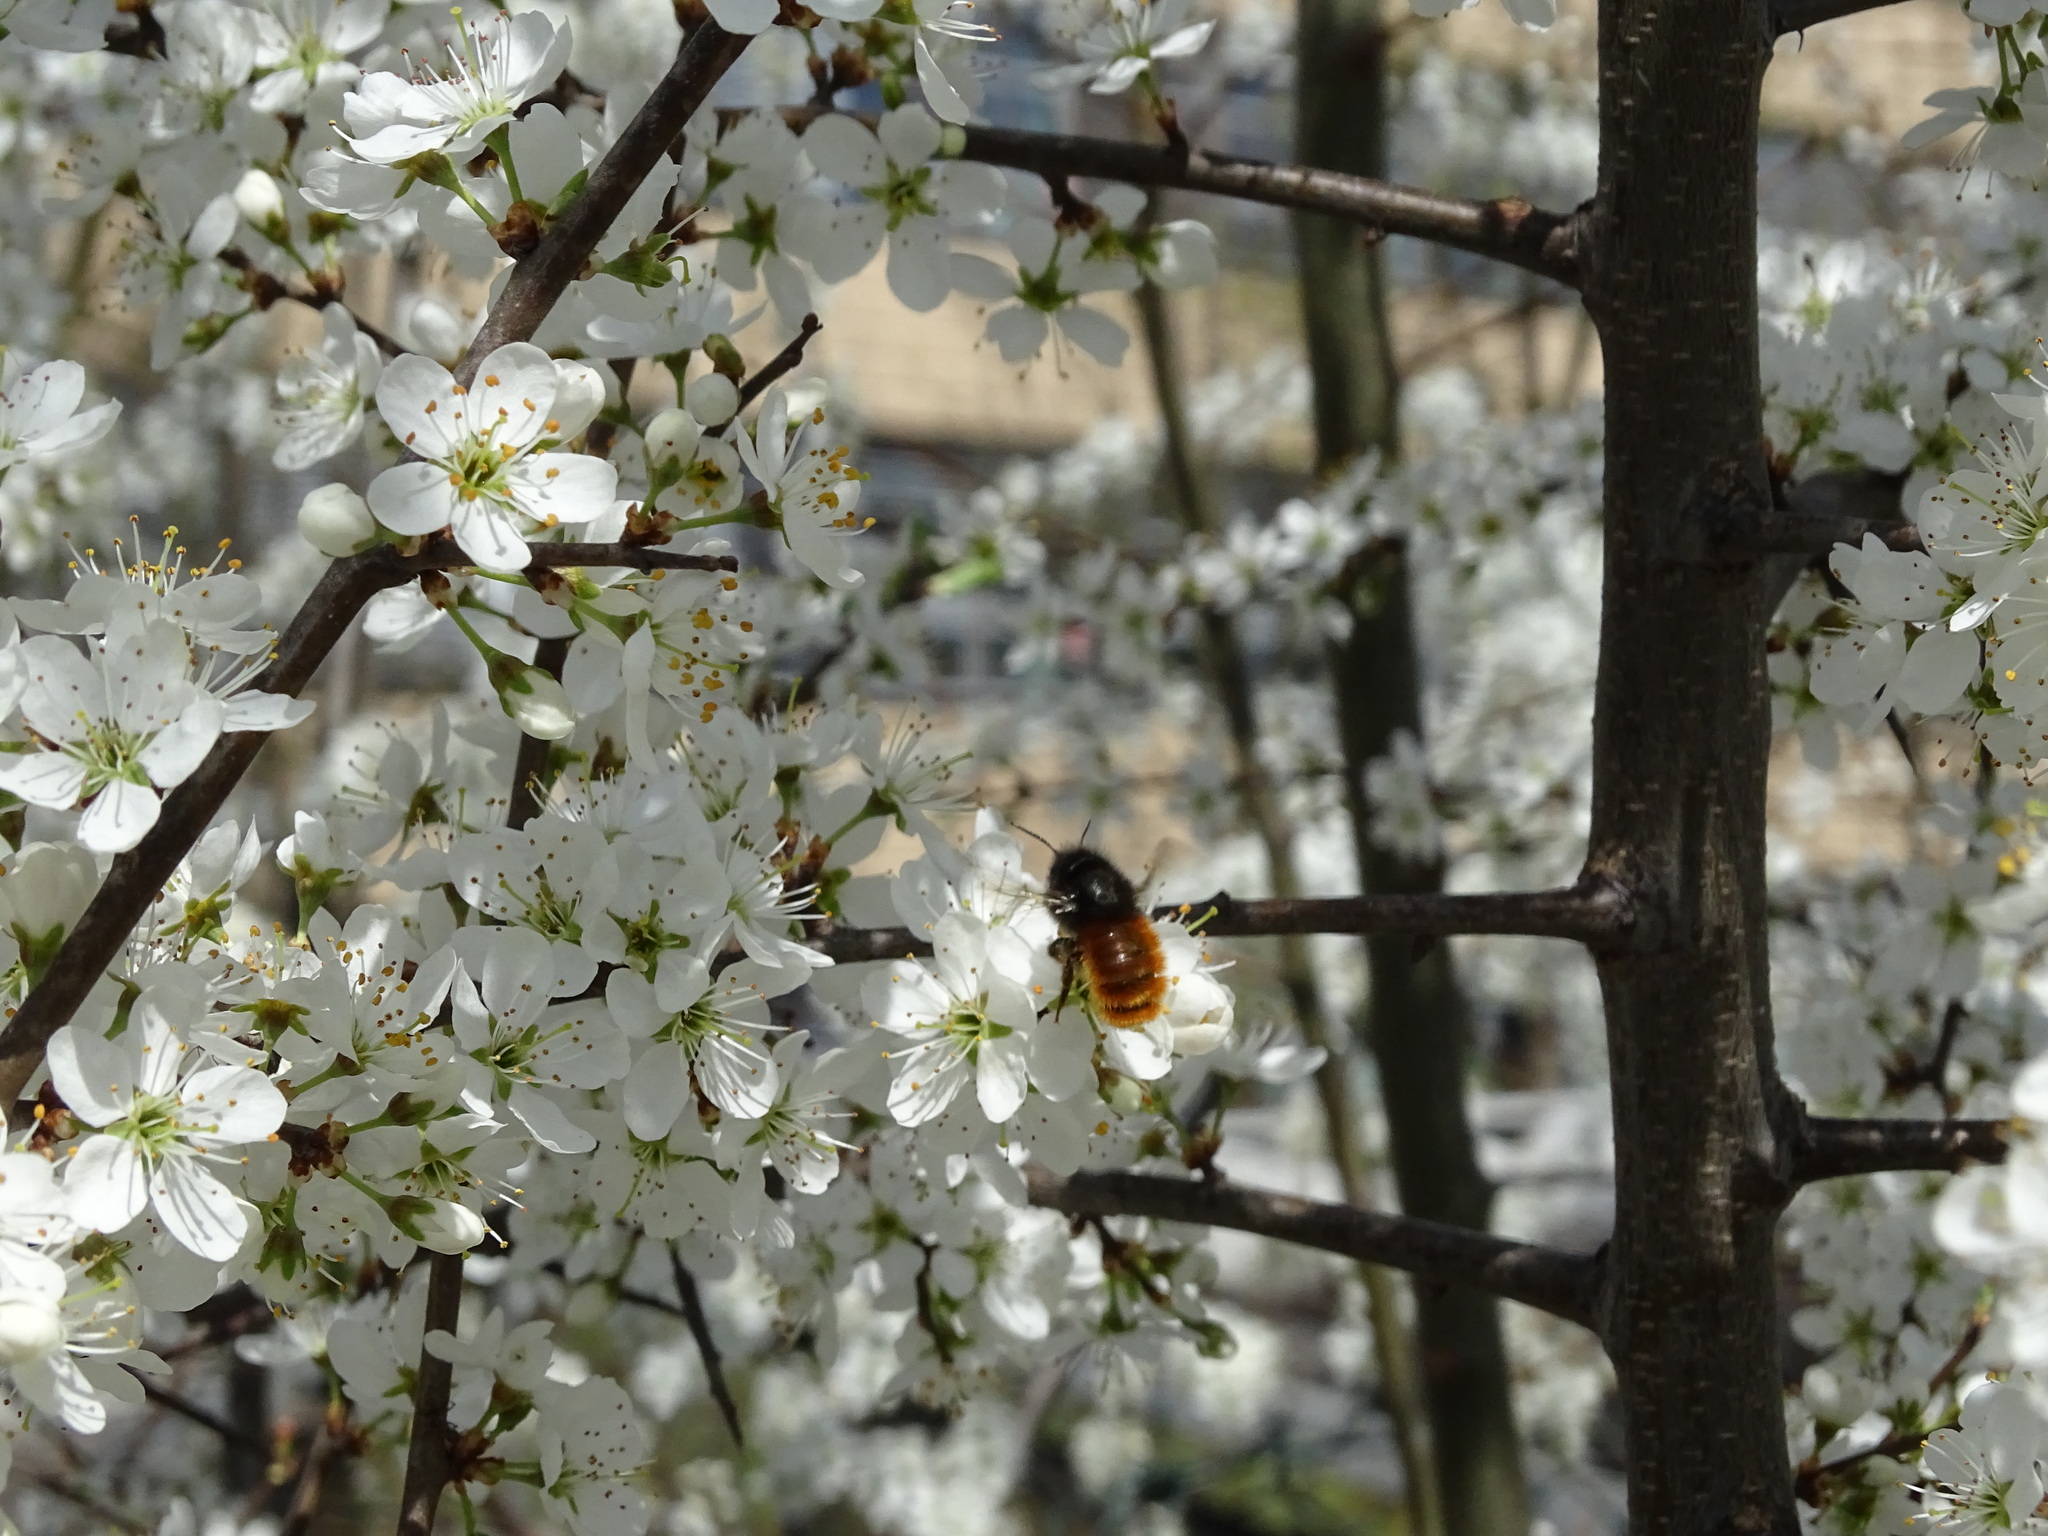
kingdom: Animalia
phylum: Arthropoda
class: Insecta
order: Hymenoptera
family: Megachilidae
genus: Osmia
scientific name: Osmia cornuta
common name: Mason bee
